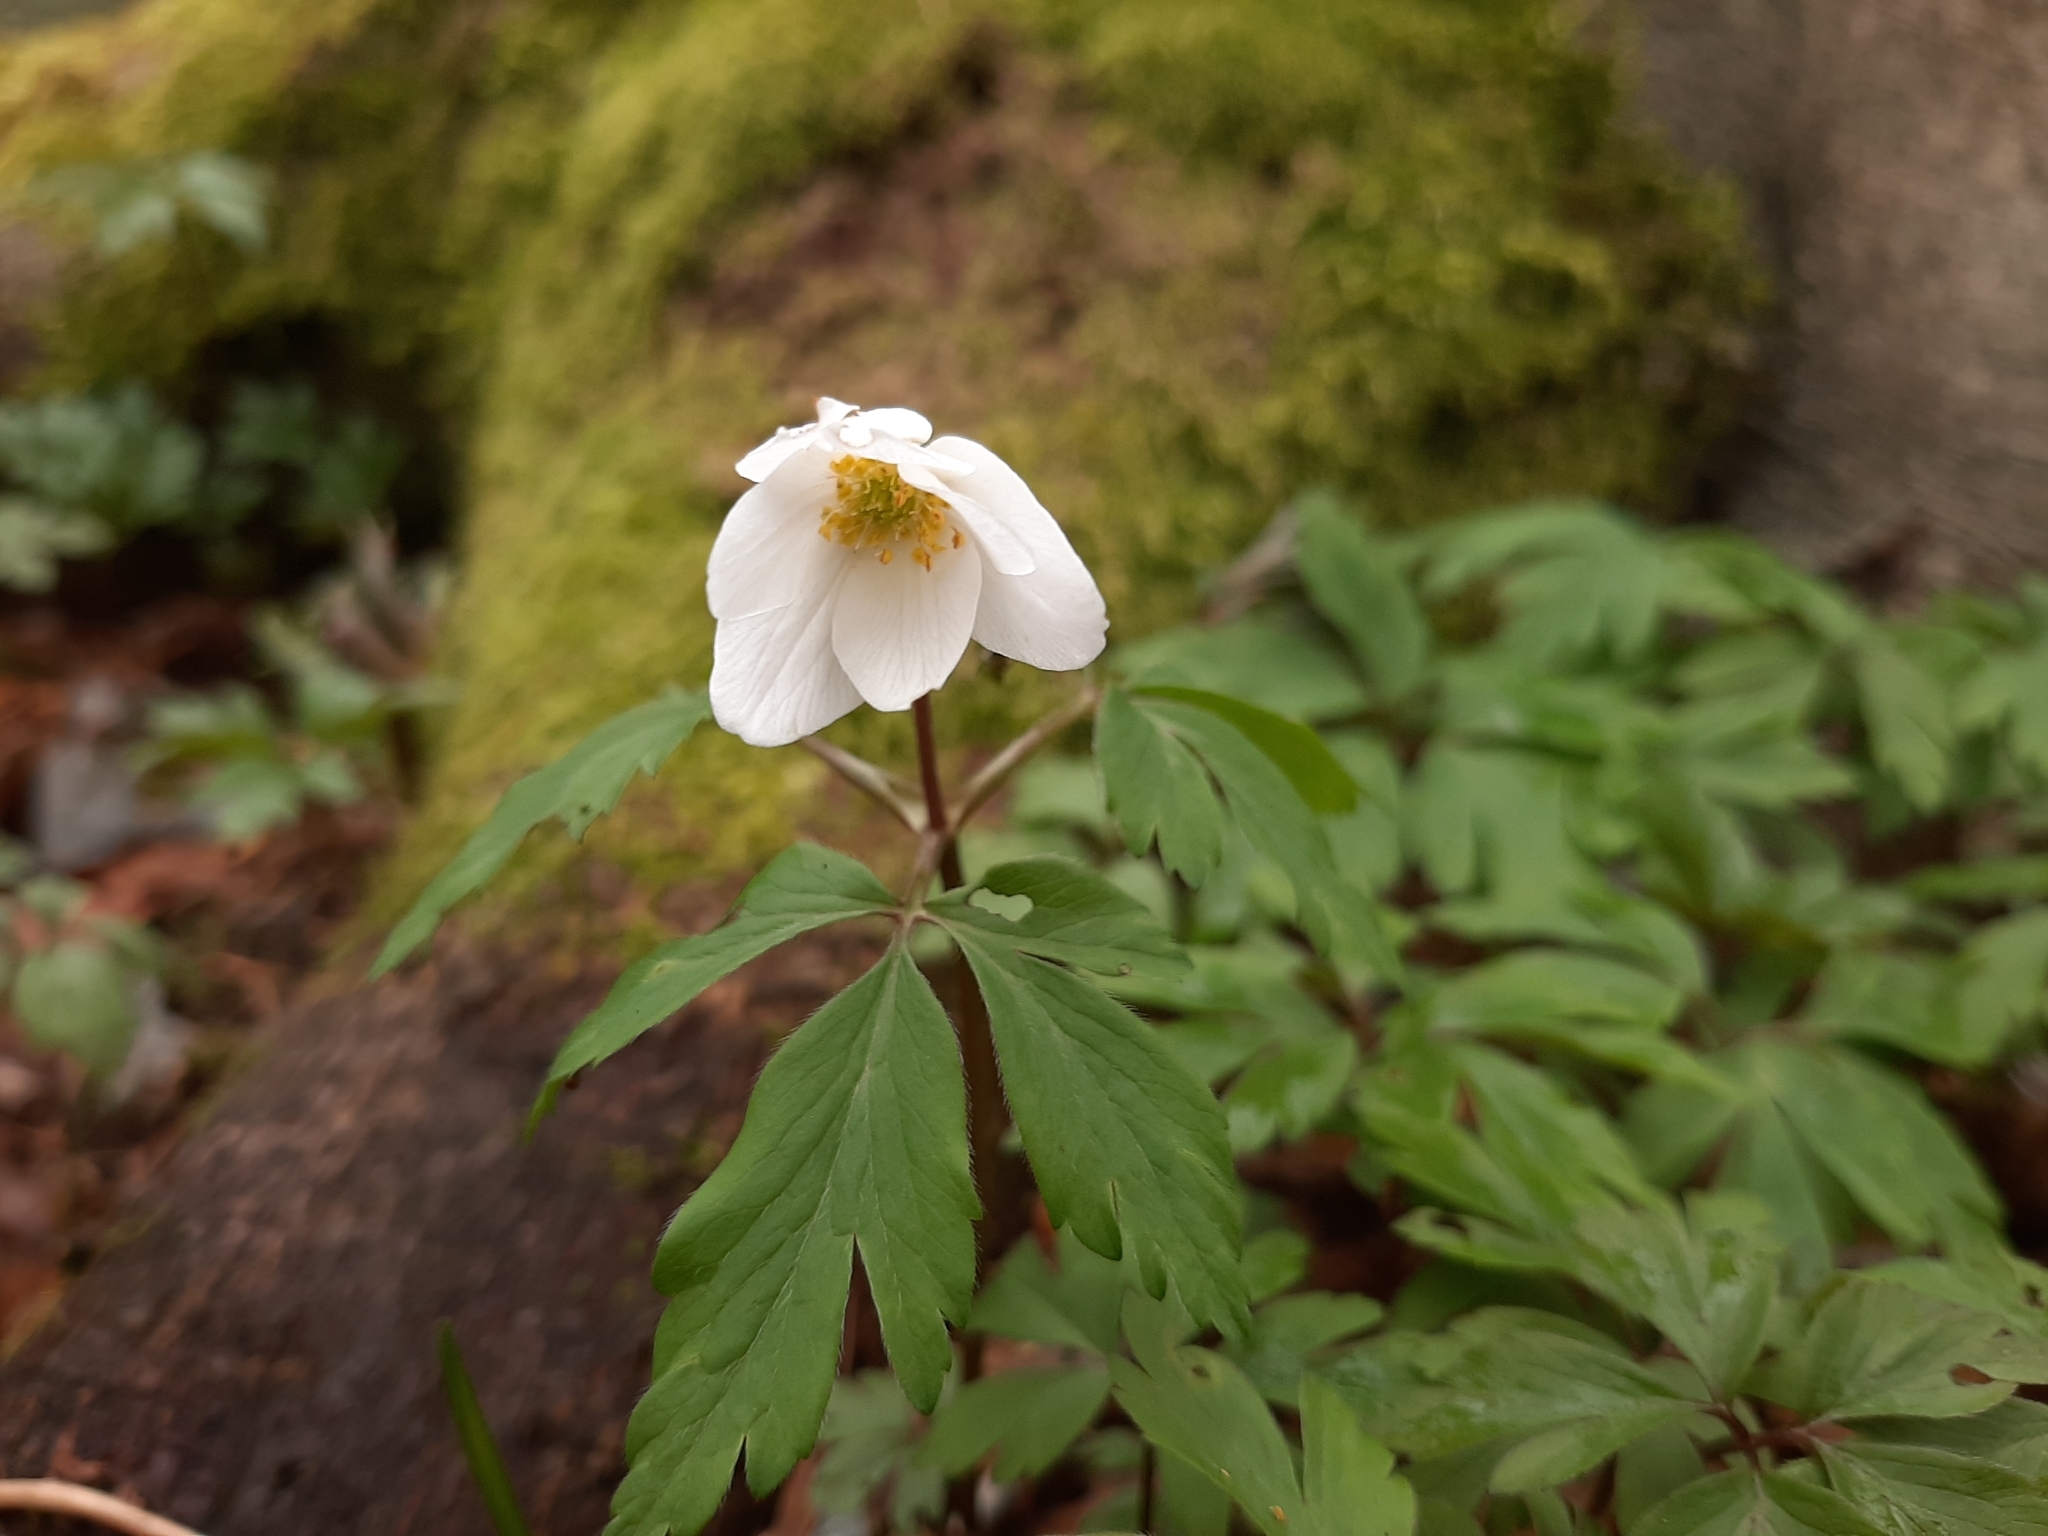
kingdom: Plantae
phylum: Tracheophyta
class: Magnoliopsida
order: Ranunculales
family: Ranunculaceae
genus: Anemone
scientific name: Anemone nemorosa
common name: Wood anemone
